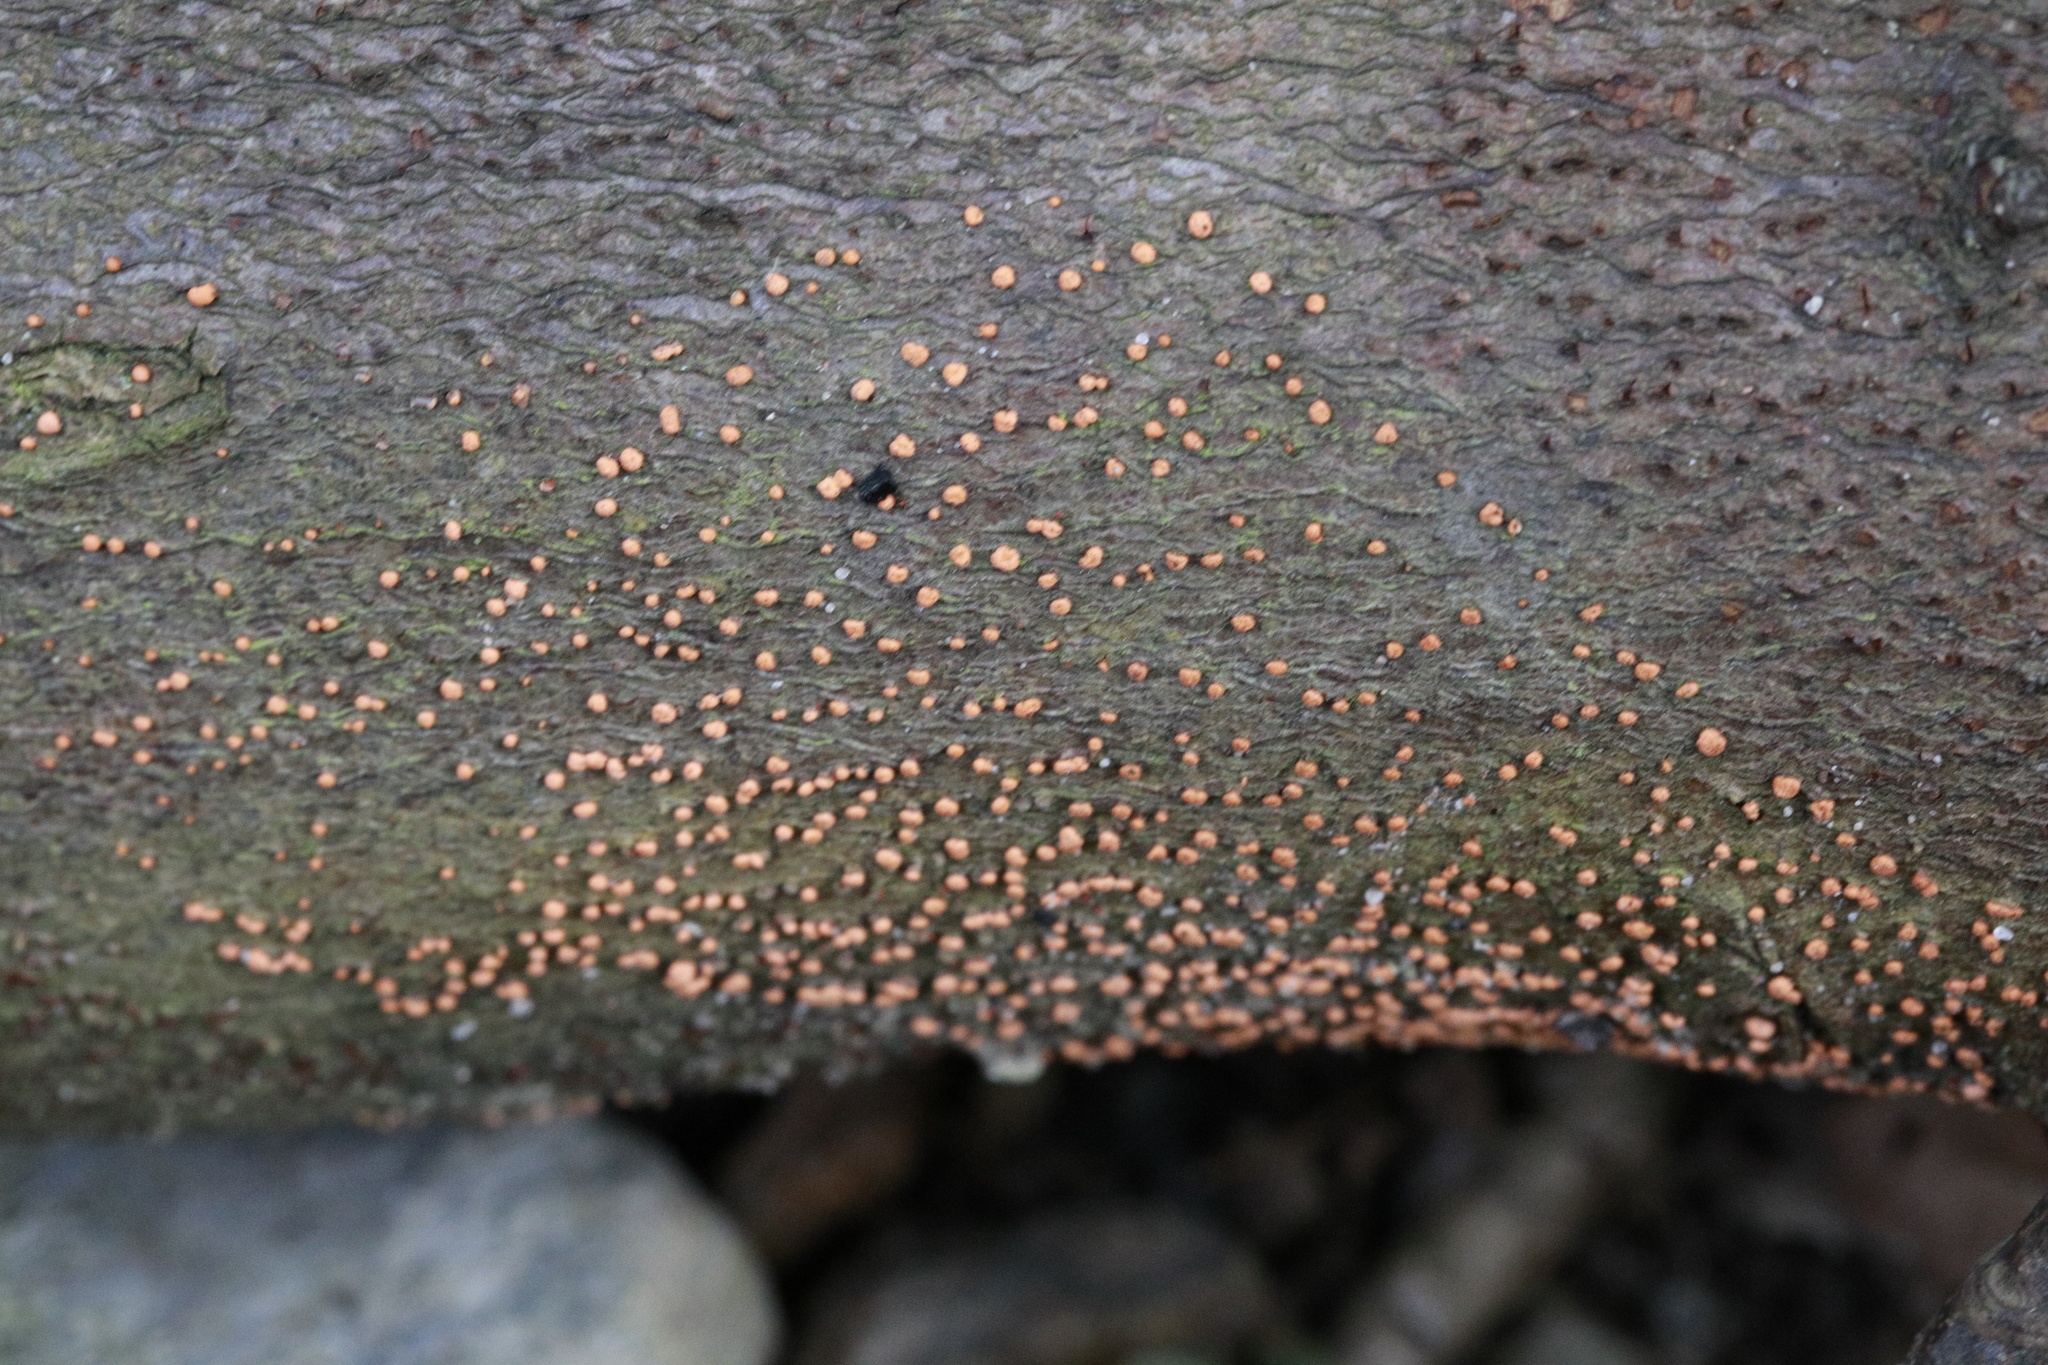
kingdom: Fungi
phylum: Ascomycota
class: Sordariomycetes
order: Hypocreales
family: Nectriaceae
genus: Nectria
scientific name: Nectria cinnabarina
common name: Coral spot
